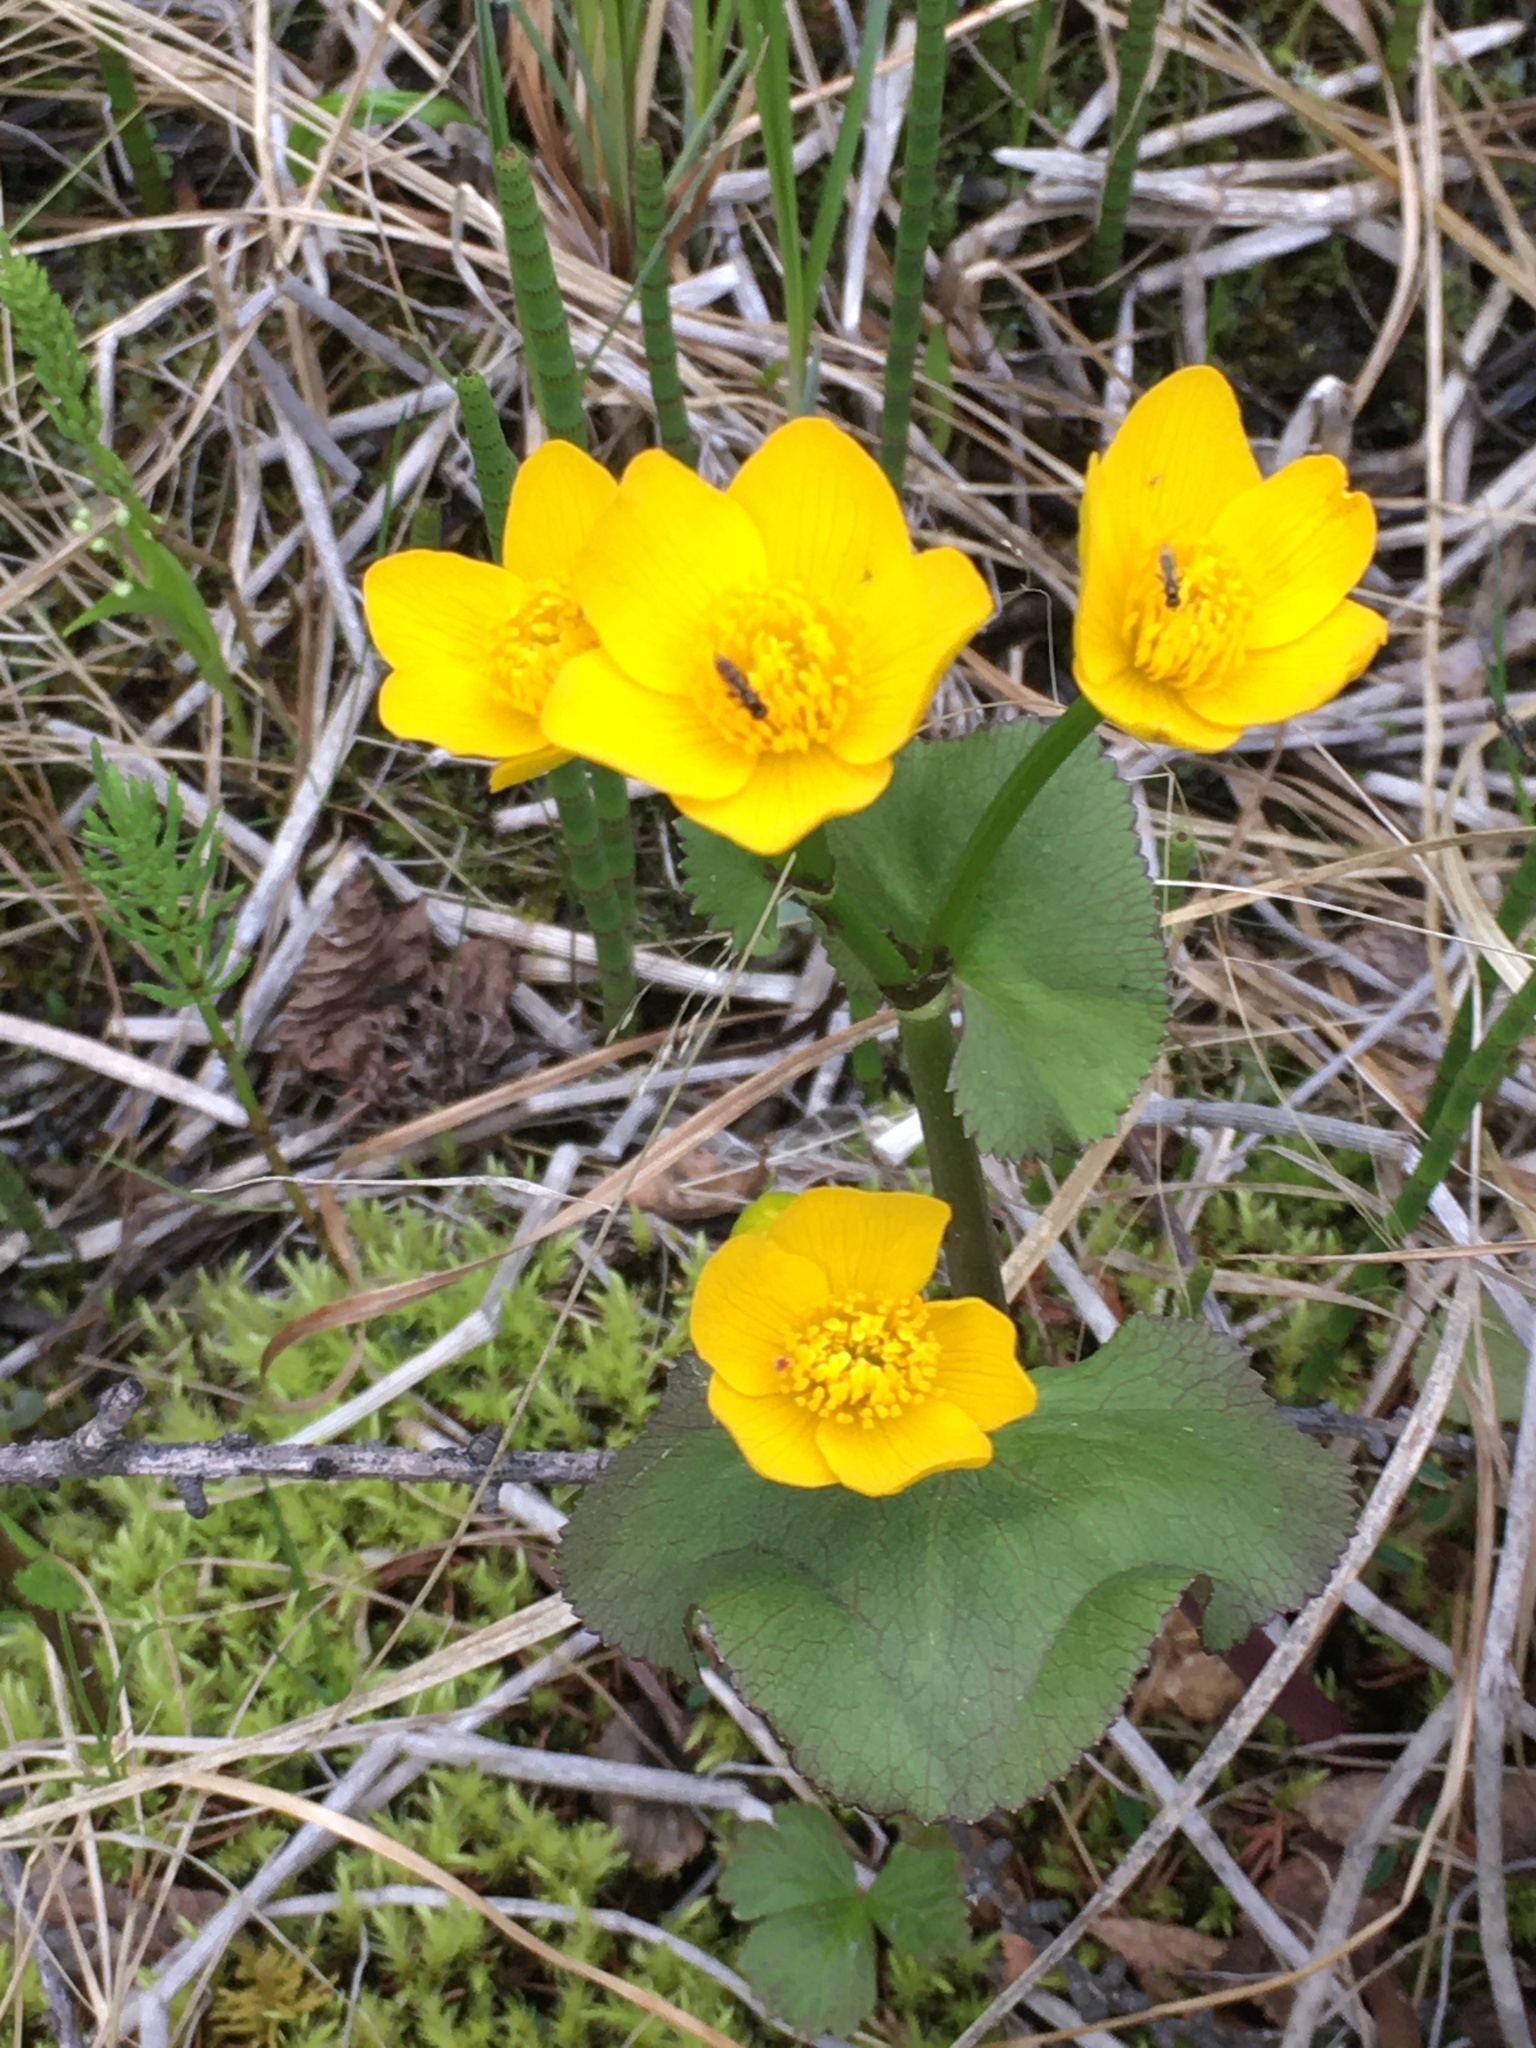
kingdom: Plantae
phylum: Tracheophyta
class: Magnoliopsida
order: Ranunculales
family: Ranunculaceae
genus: Caltha
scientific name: Caltha palustris
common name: Marsh marigold
